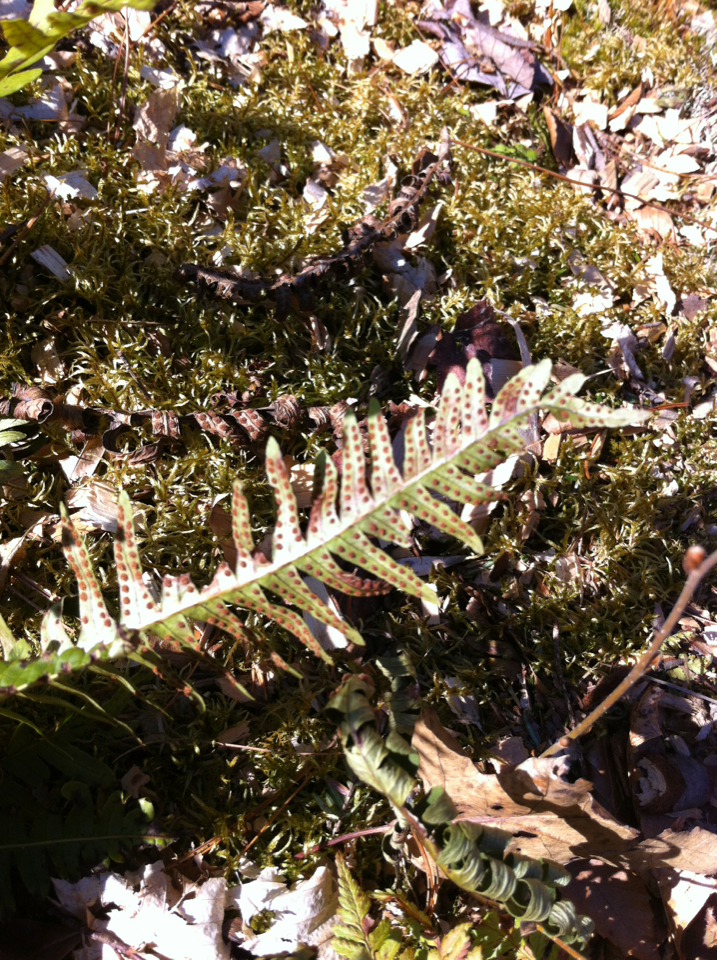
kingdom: Plantae
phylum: Tracheophyta
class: Polypodiopsida
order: Polypodiales
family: Polypodiaceae
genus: Polypodium
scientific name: Polypodium virginianum
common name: American wall fern
